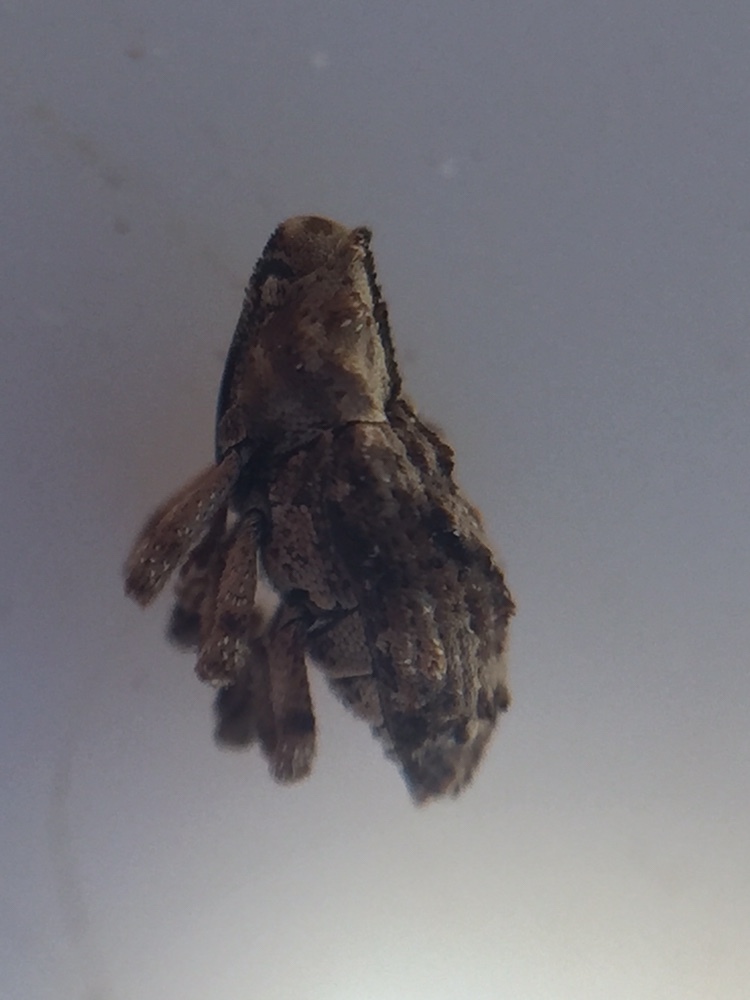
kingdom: Animalia
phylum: Arthropoda
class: Insecta
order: Coleoptera
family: Curculionidae
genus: Mecistostylus
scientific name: Mecistostylus douei
